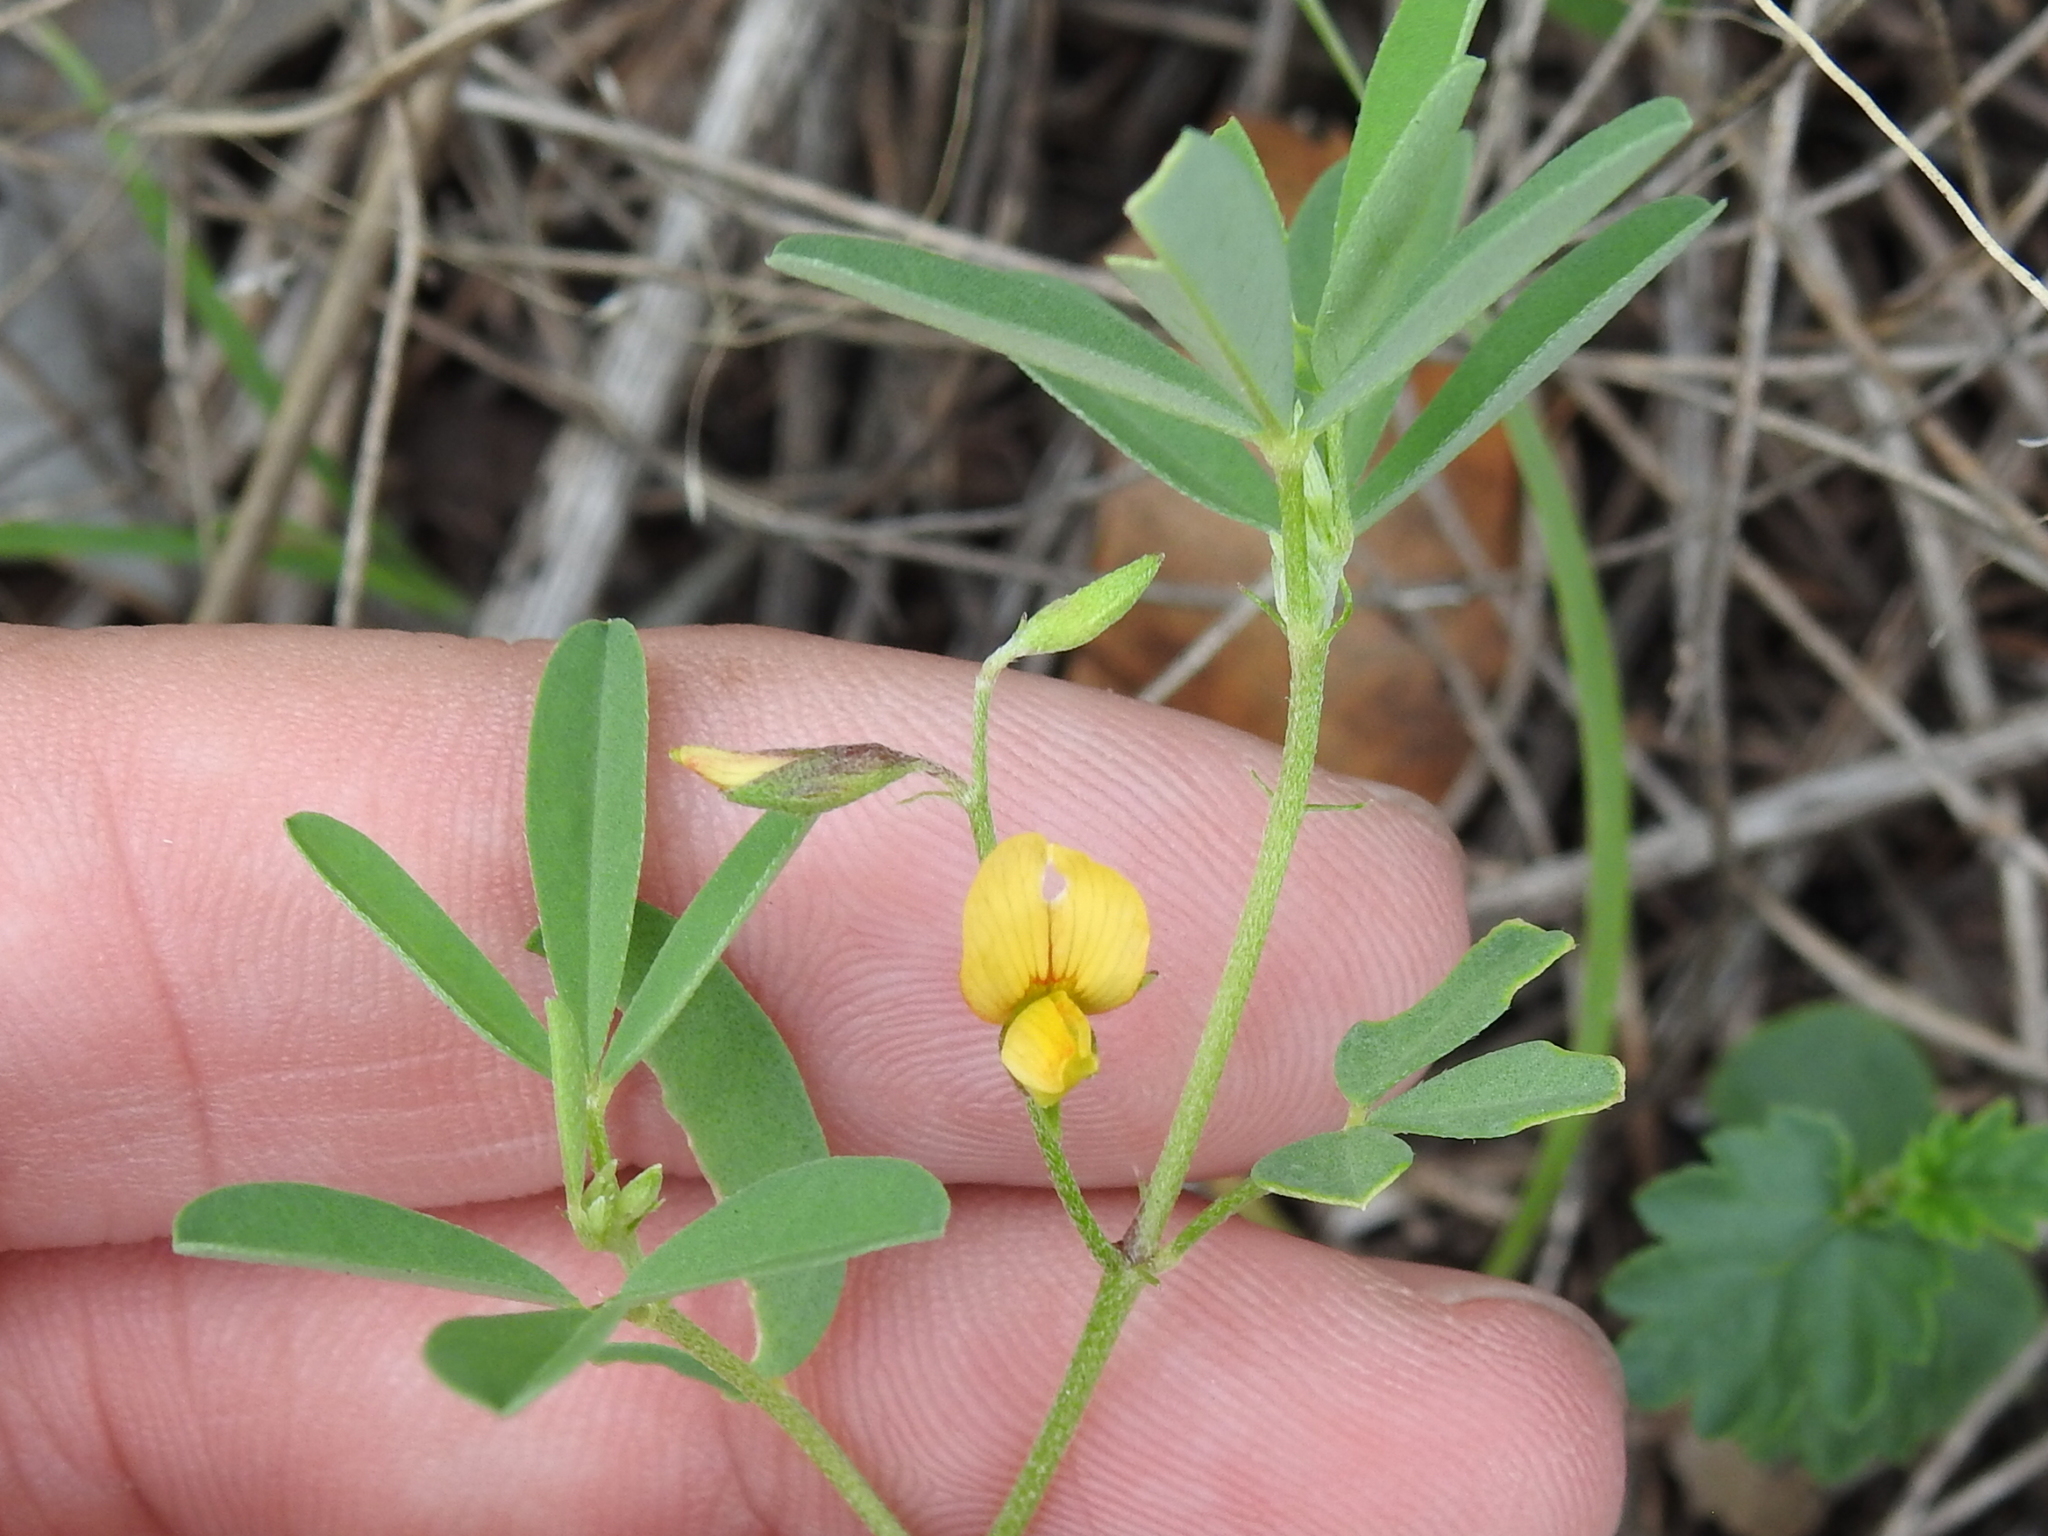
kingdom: Plantae
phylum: Tracheophyta
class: Magnoliopsida
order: Fabales
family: Fabaceae
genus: Crotalaria
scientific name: Crotalaria pumila
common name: Low rattlebox
